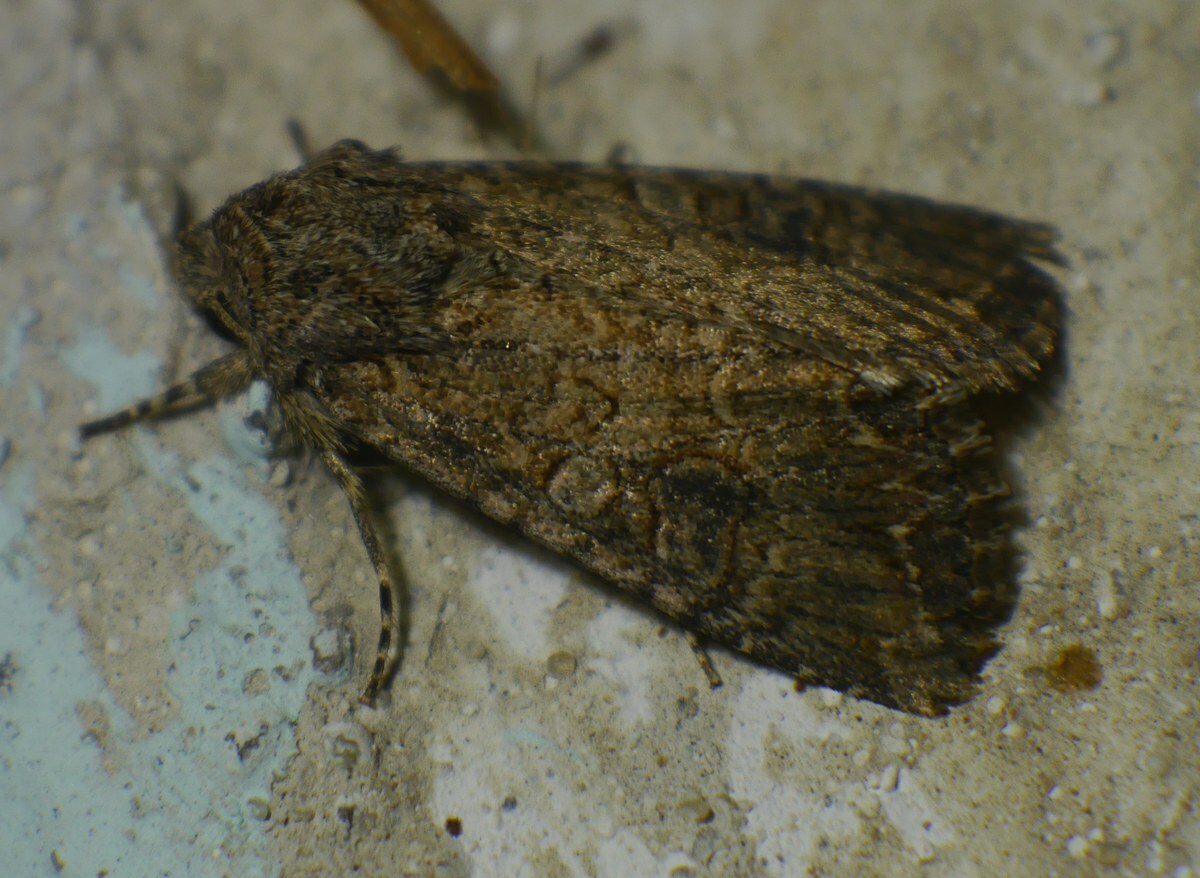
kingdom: Animalia
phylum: Arthropoda
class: Insecta
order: Lepidoptera
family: Noctuidae
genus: Anarta
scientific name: Anarta trifolii
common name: Clover cutworm moth
